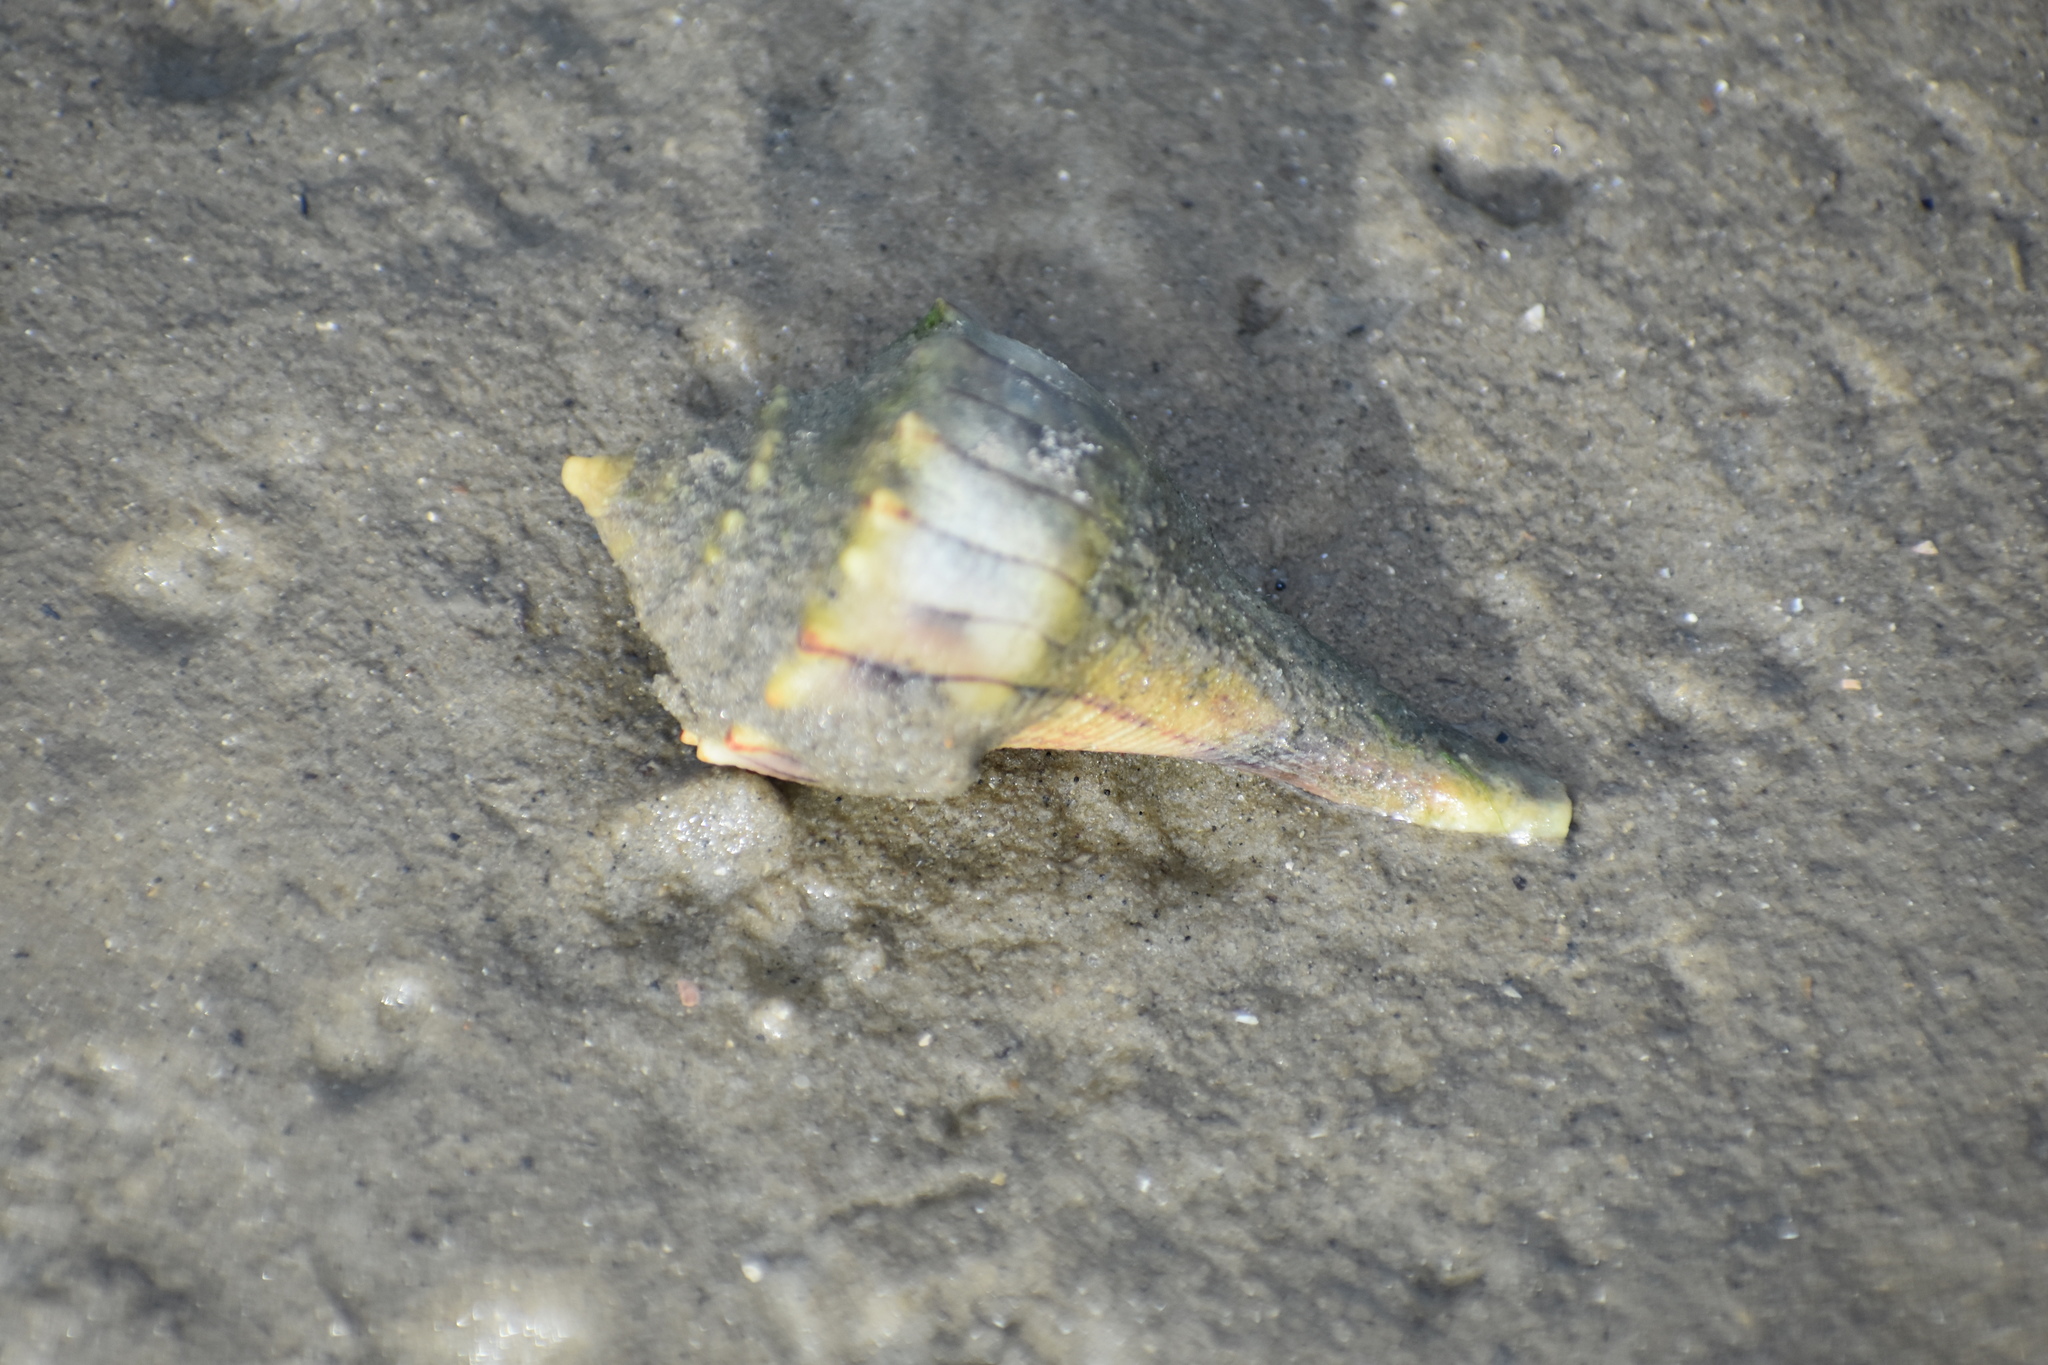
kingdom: Animalia
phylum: Mollusca
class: Gastropoda
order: Neogastropoda
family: Busyconidae
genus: Sinistrofulgur
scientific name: Sinistrofulgur sinistrum
